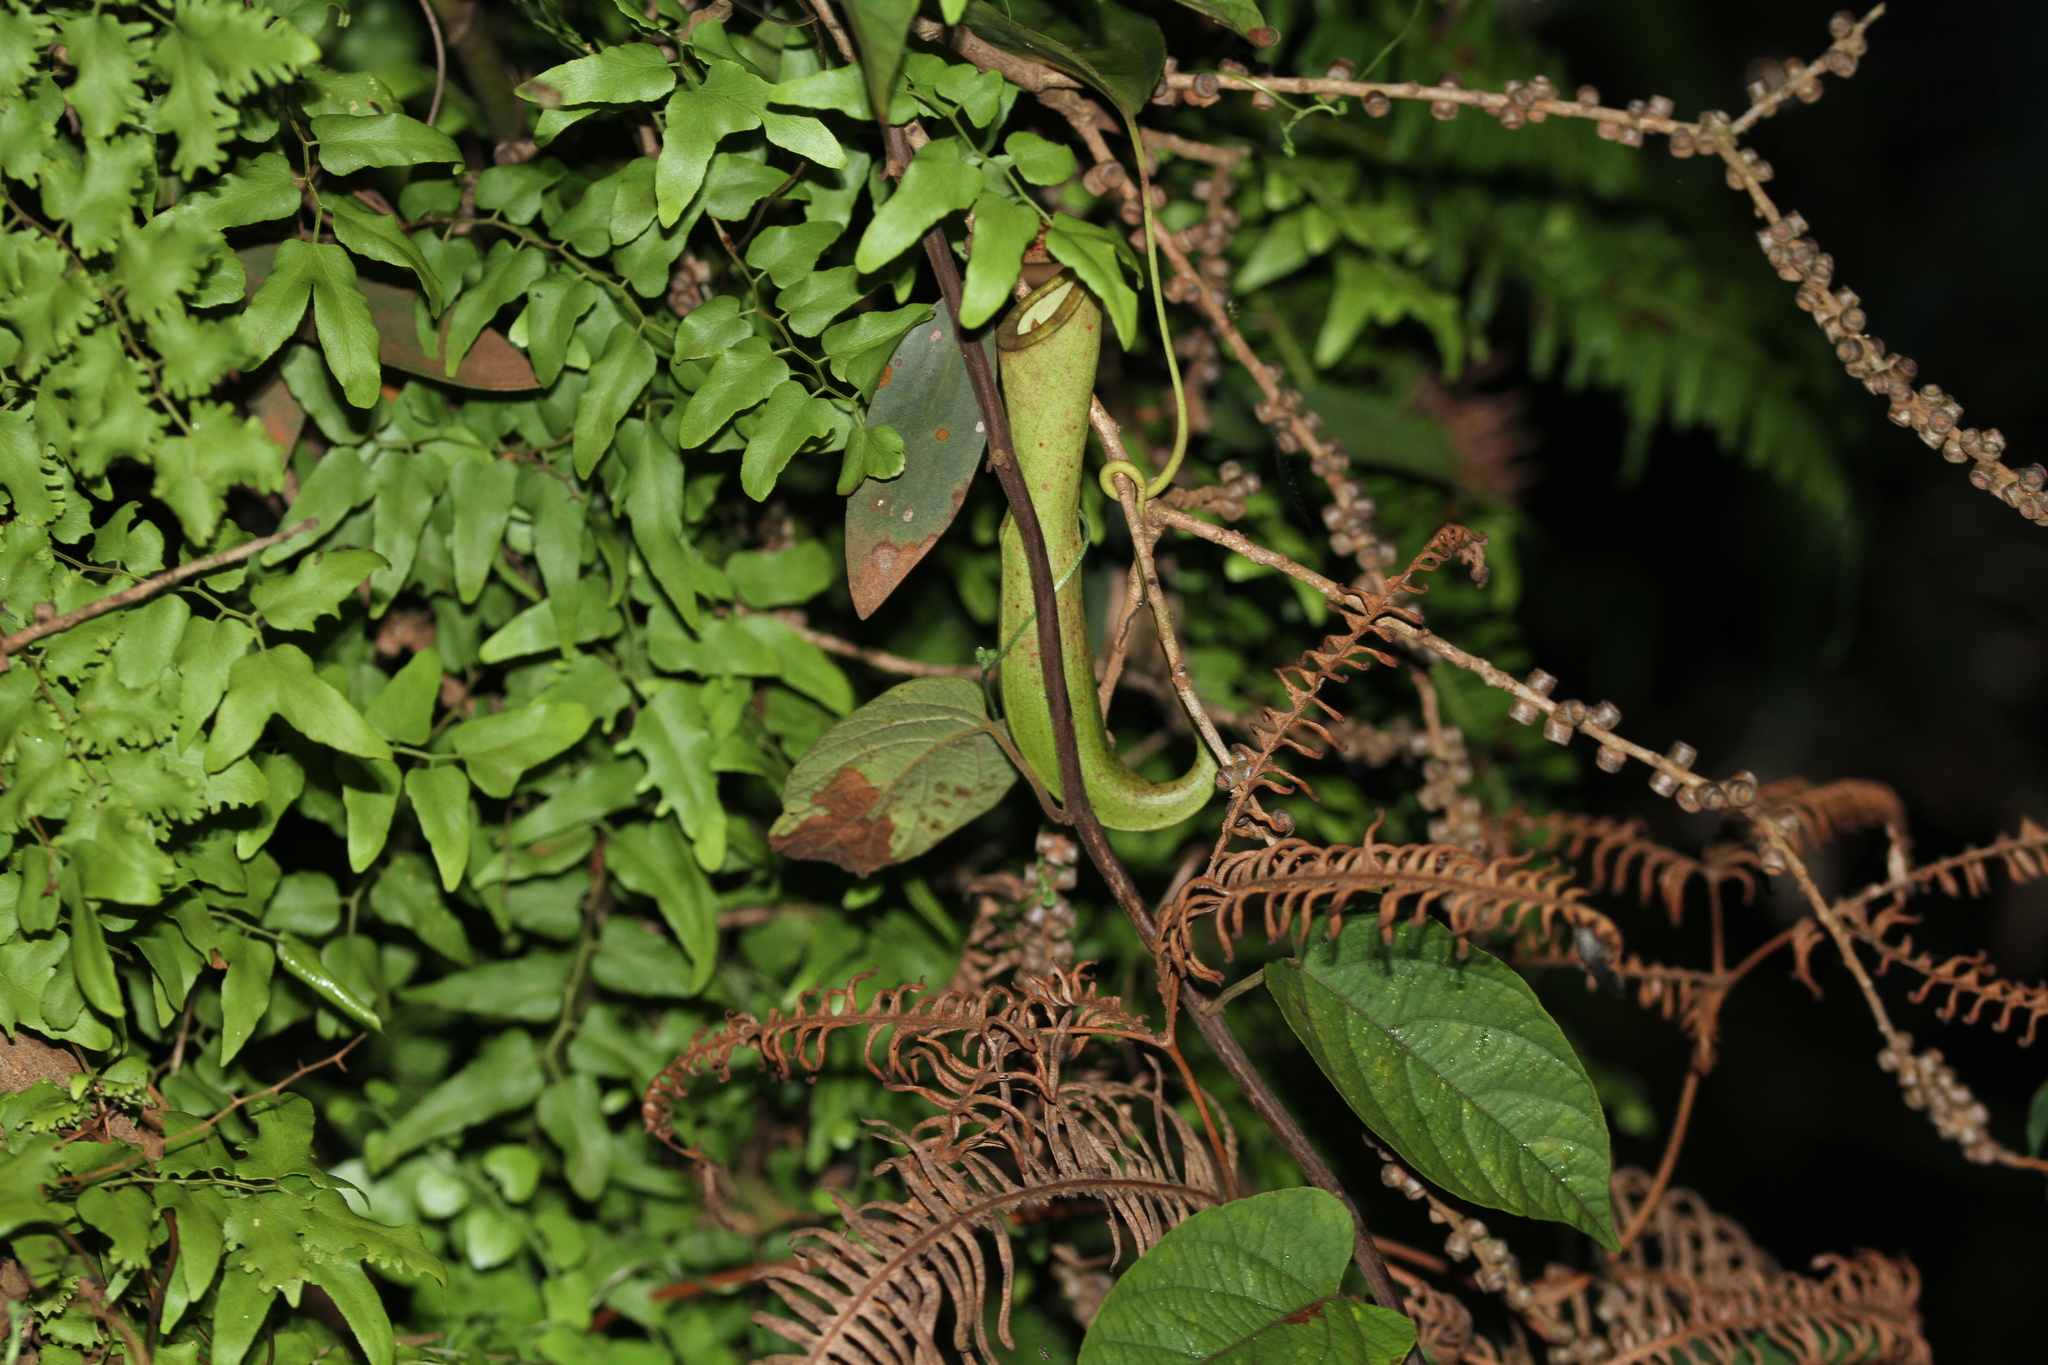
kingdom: Plantae
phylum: Tracheophyta
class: Magnoliopsida
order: Caryophyllales
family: Nepenthaceae
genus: Nepenthes
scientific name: Nepenthes mirabilis
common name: Tropical pitcherplant
